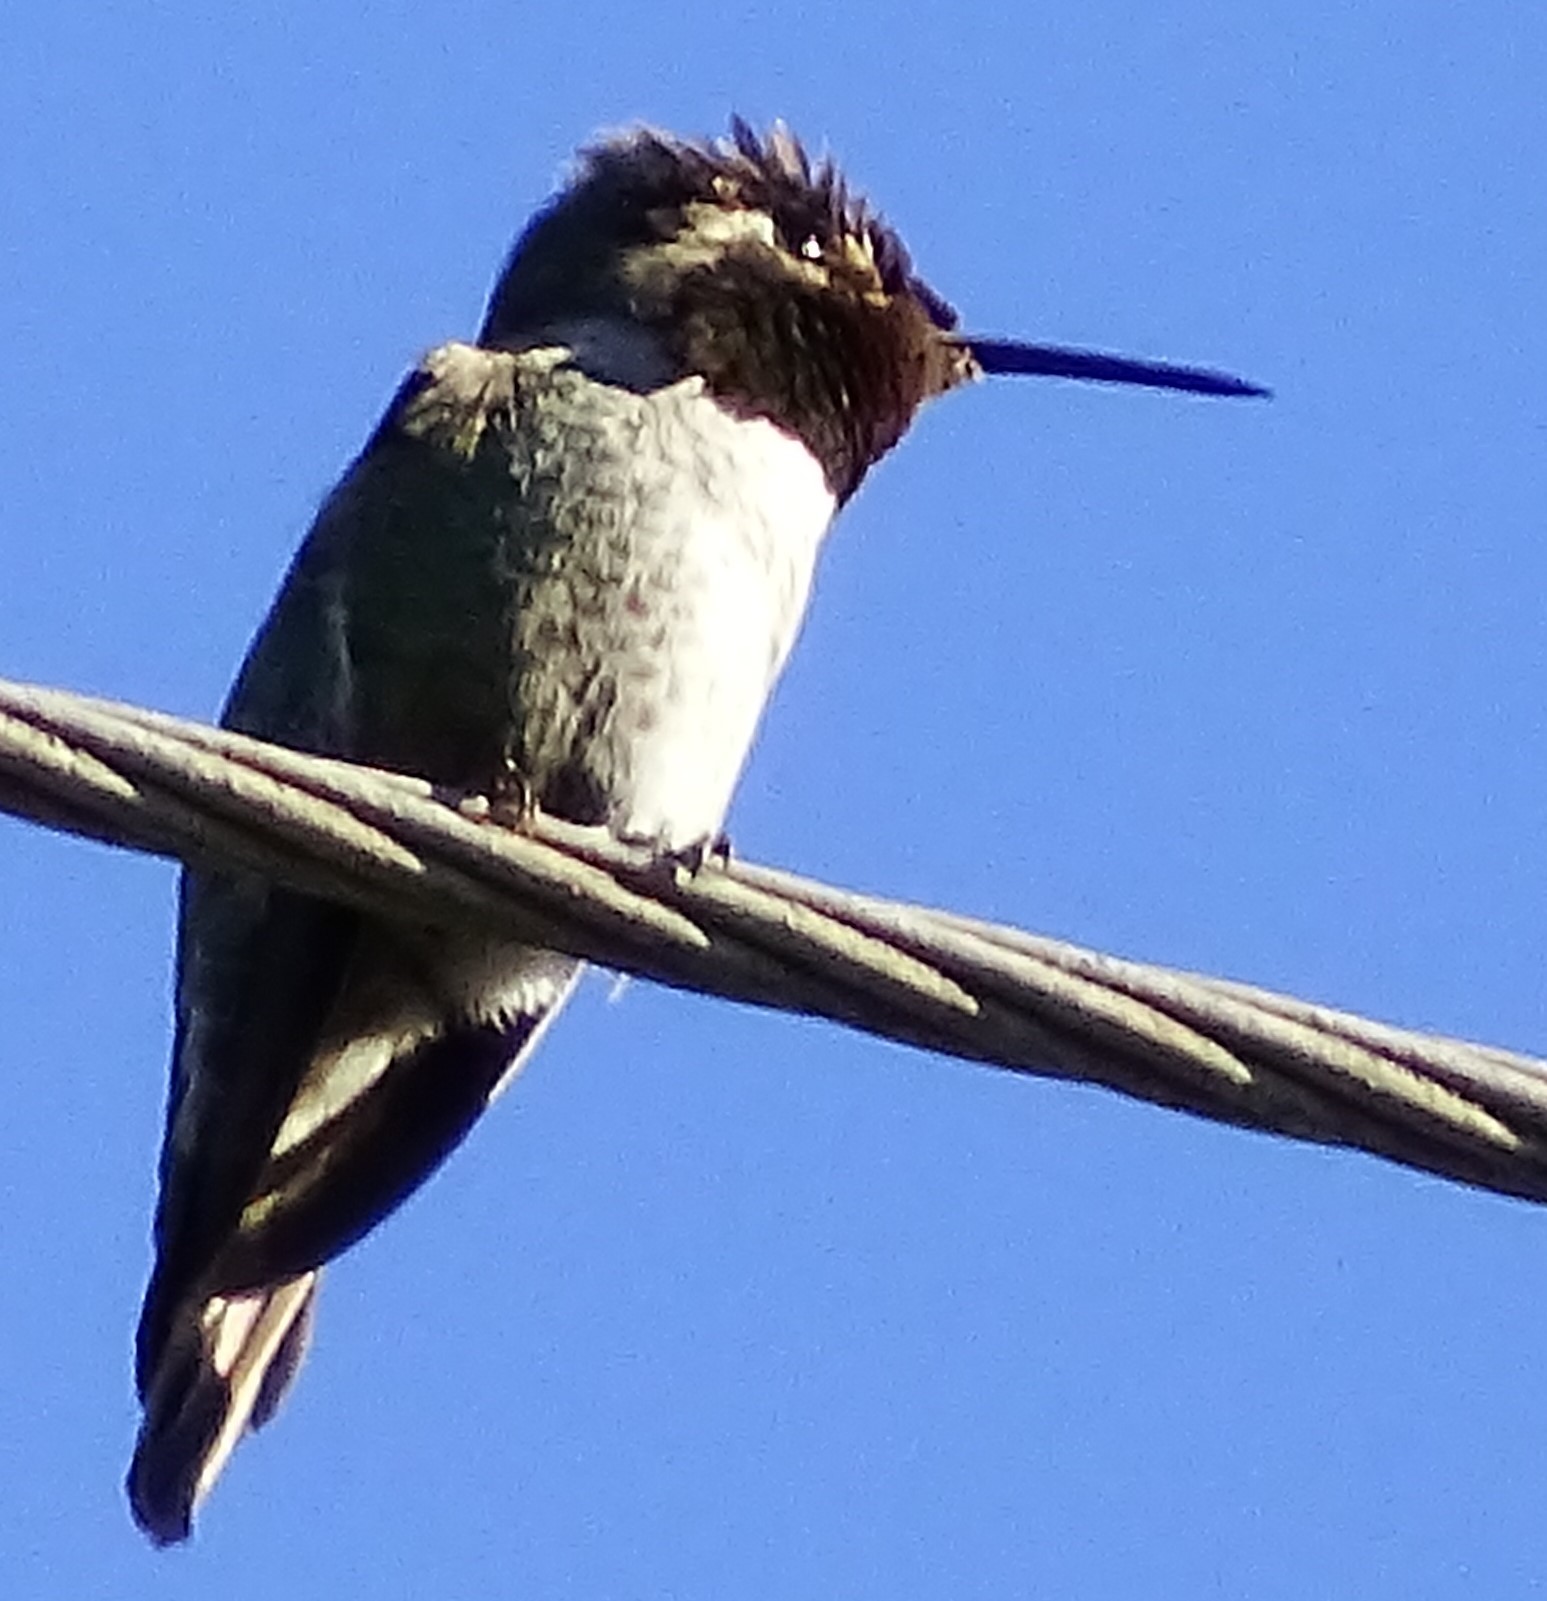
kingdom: Animalia
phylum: Chordata
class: Aves
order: Apodiformes
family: Trochilidae
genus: Calypte
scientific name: Calypte anna
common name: Anna's hummingbird
